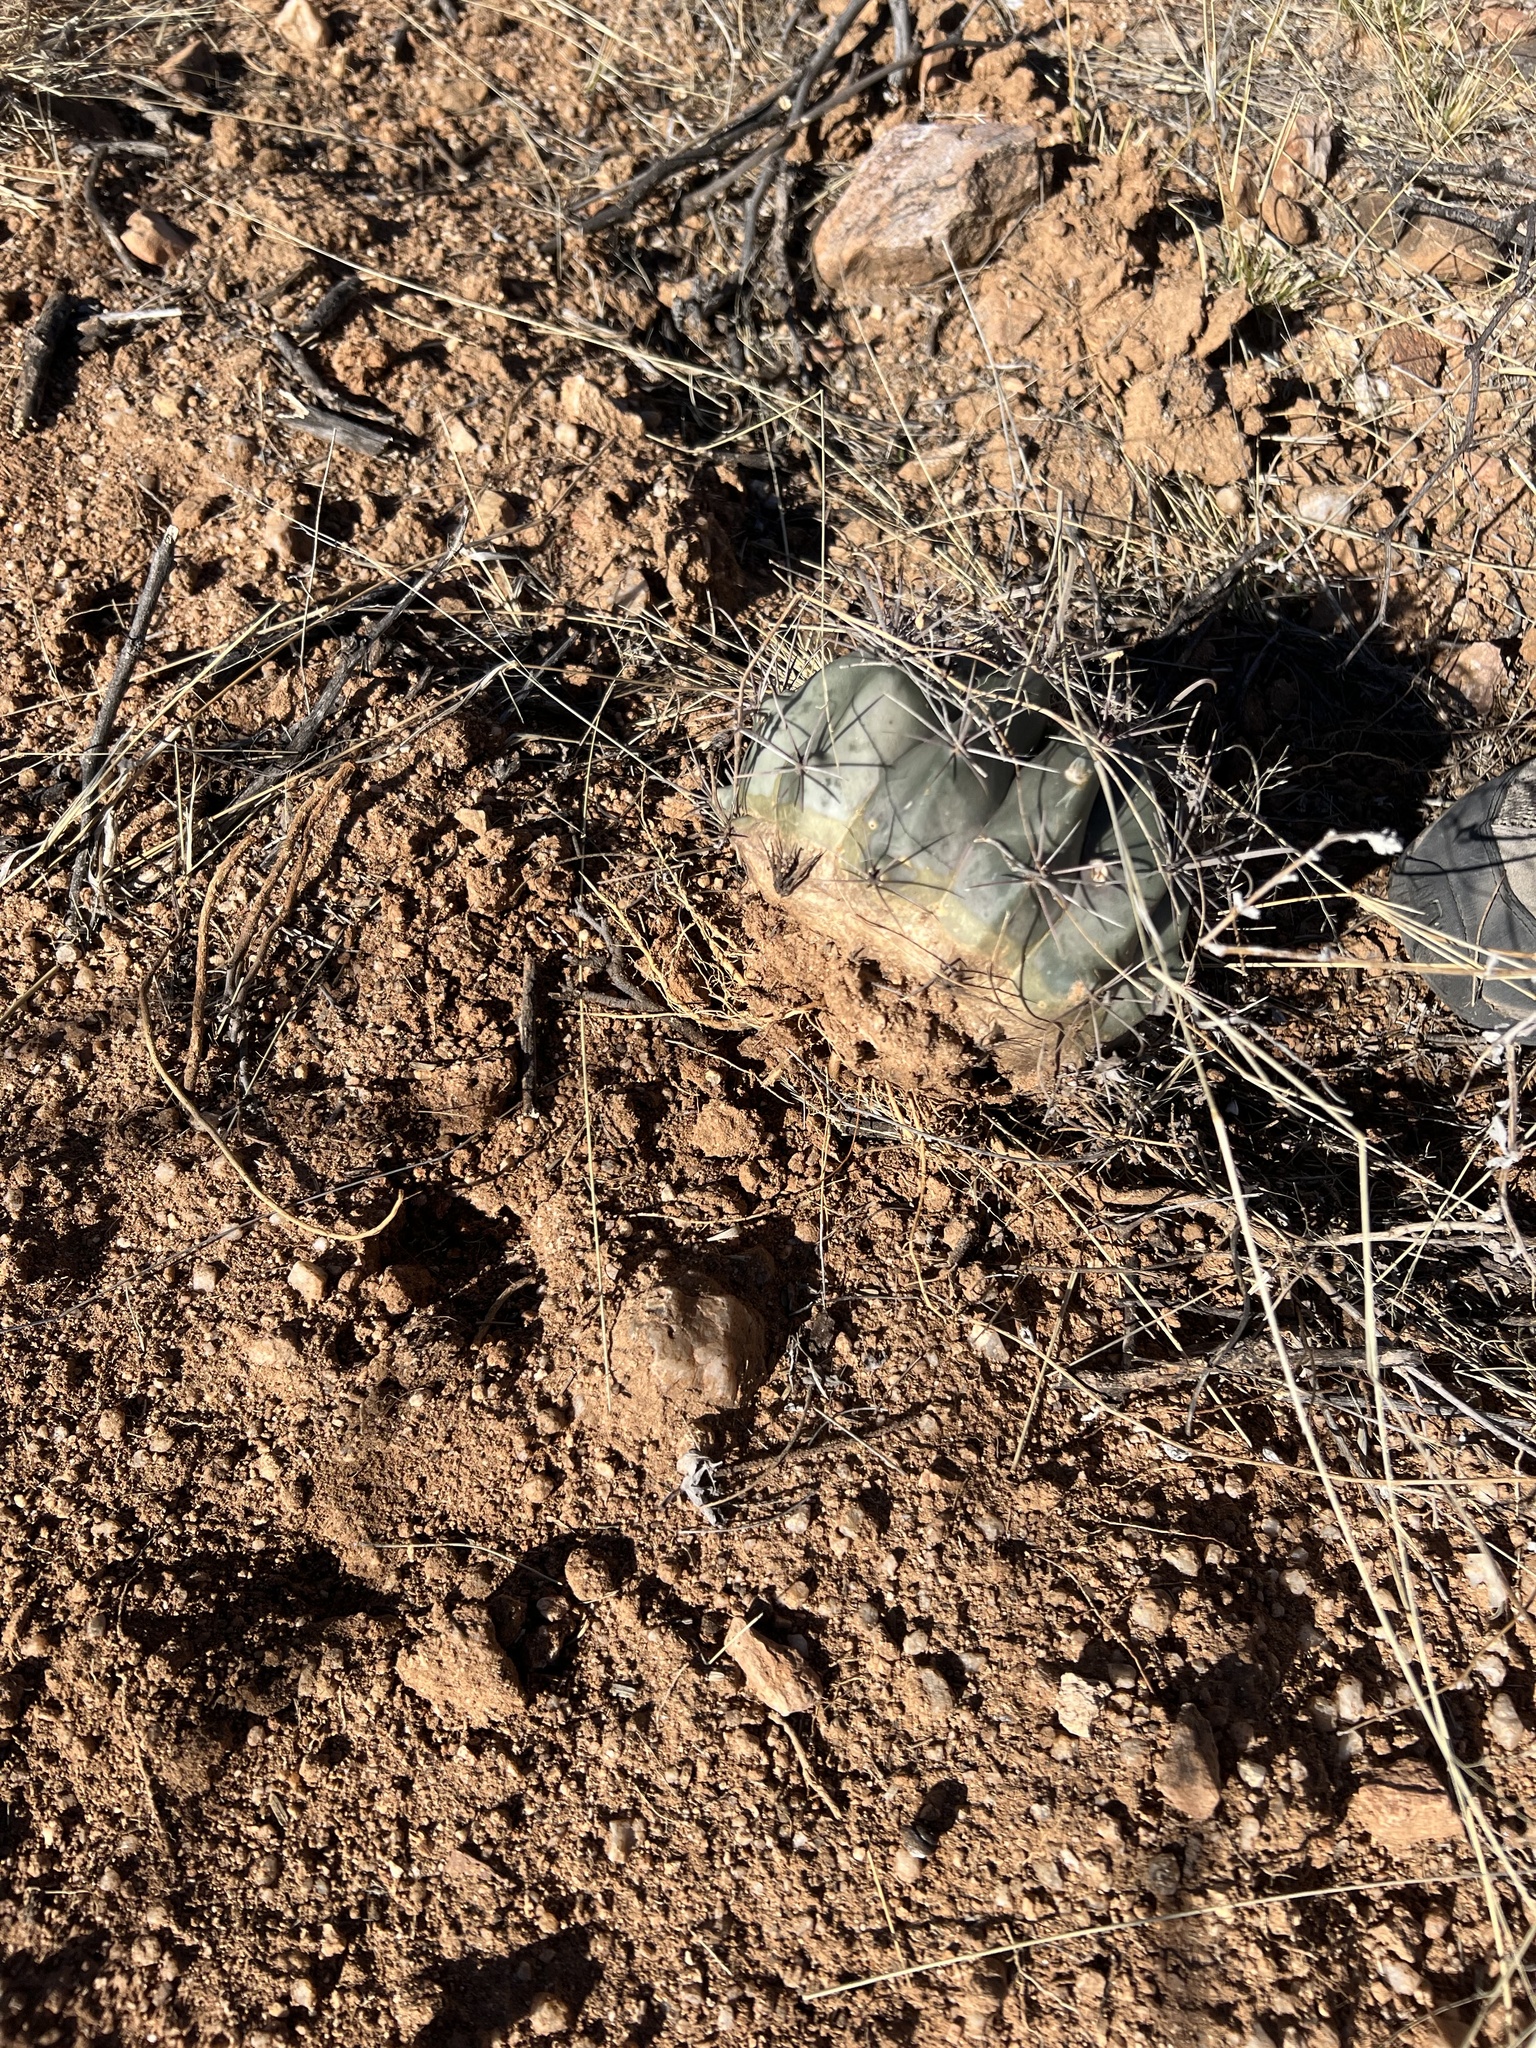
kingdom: Plantae
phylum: Tracheophyta
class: Magnoliopsida
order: Caryophyllales
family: Cactaceae
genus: Ferocactus
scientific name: Ferocactus wislizeni
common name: Candy barrel cactus
